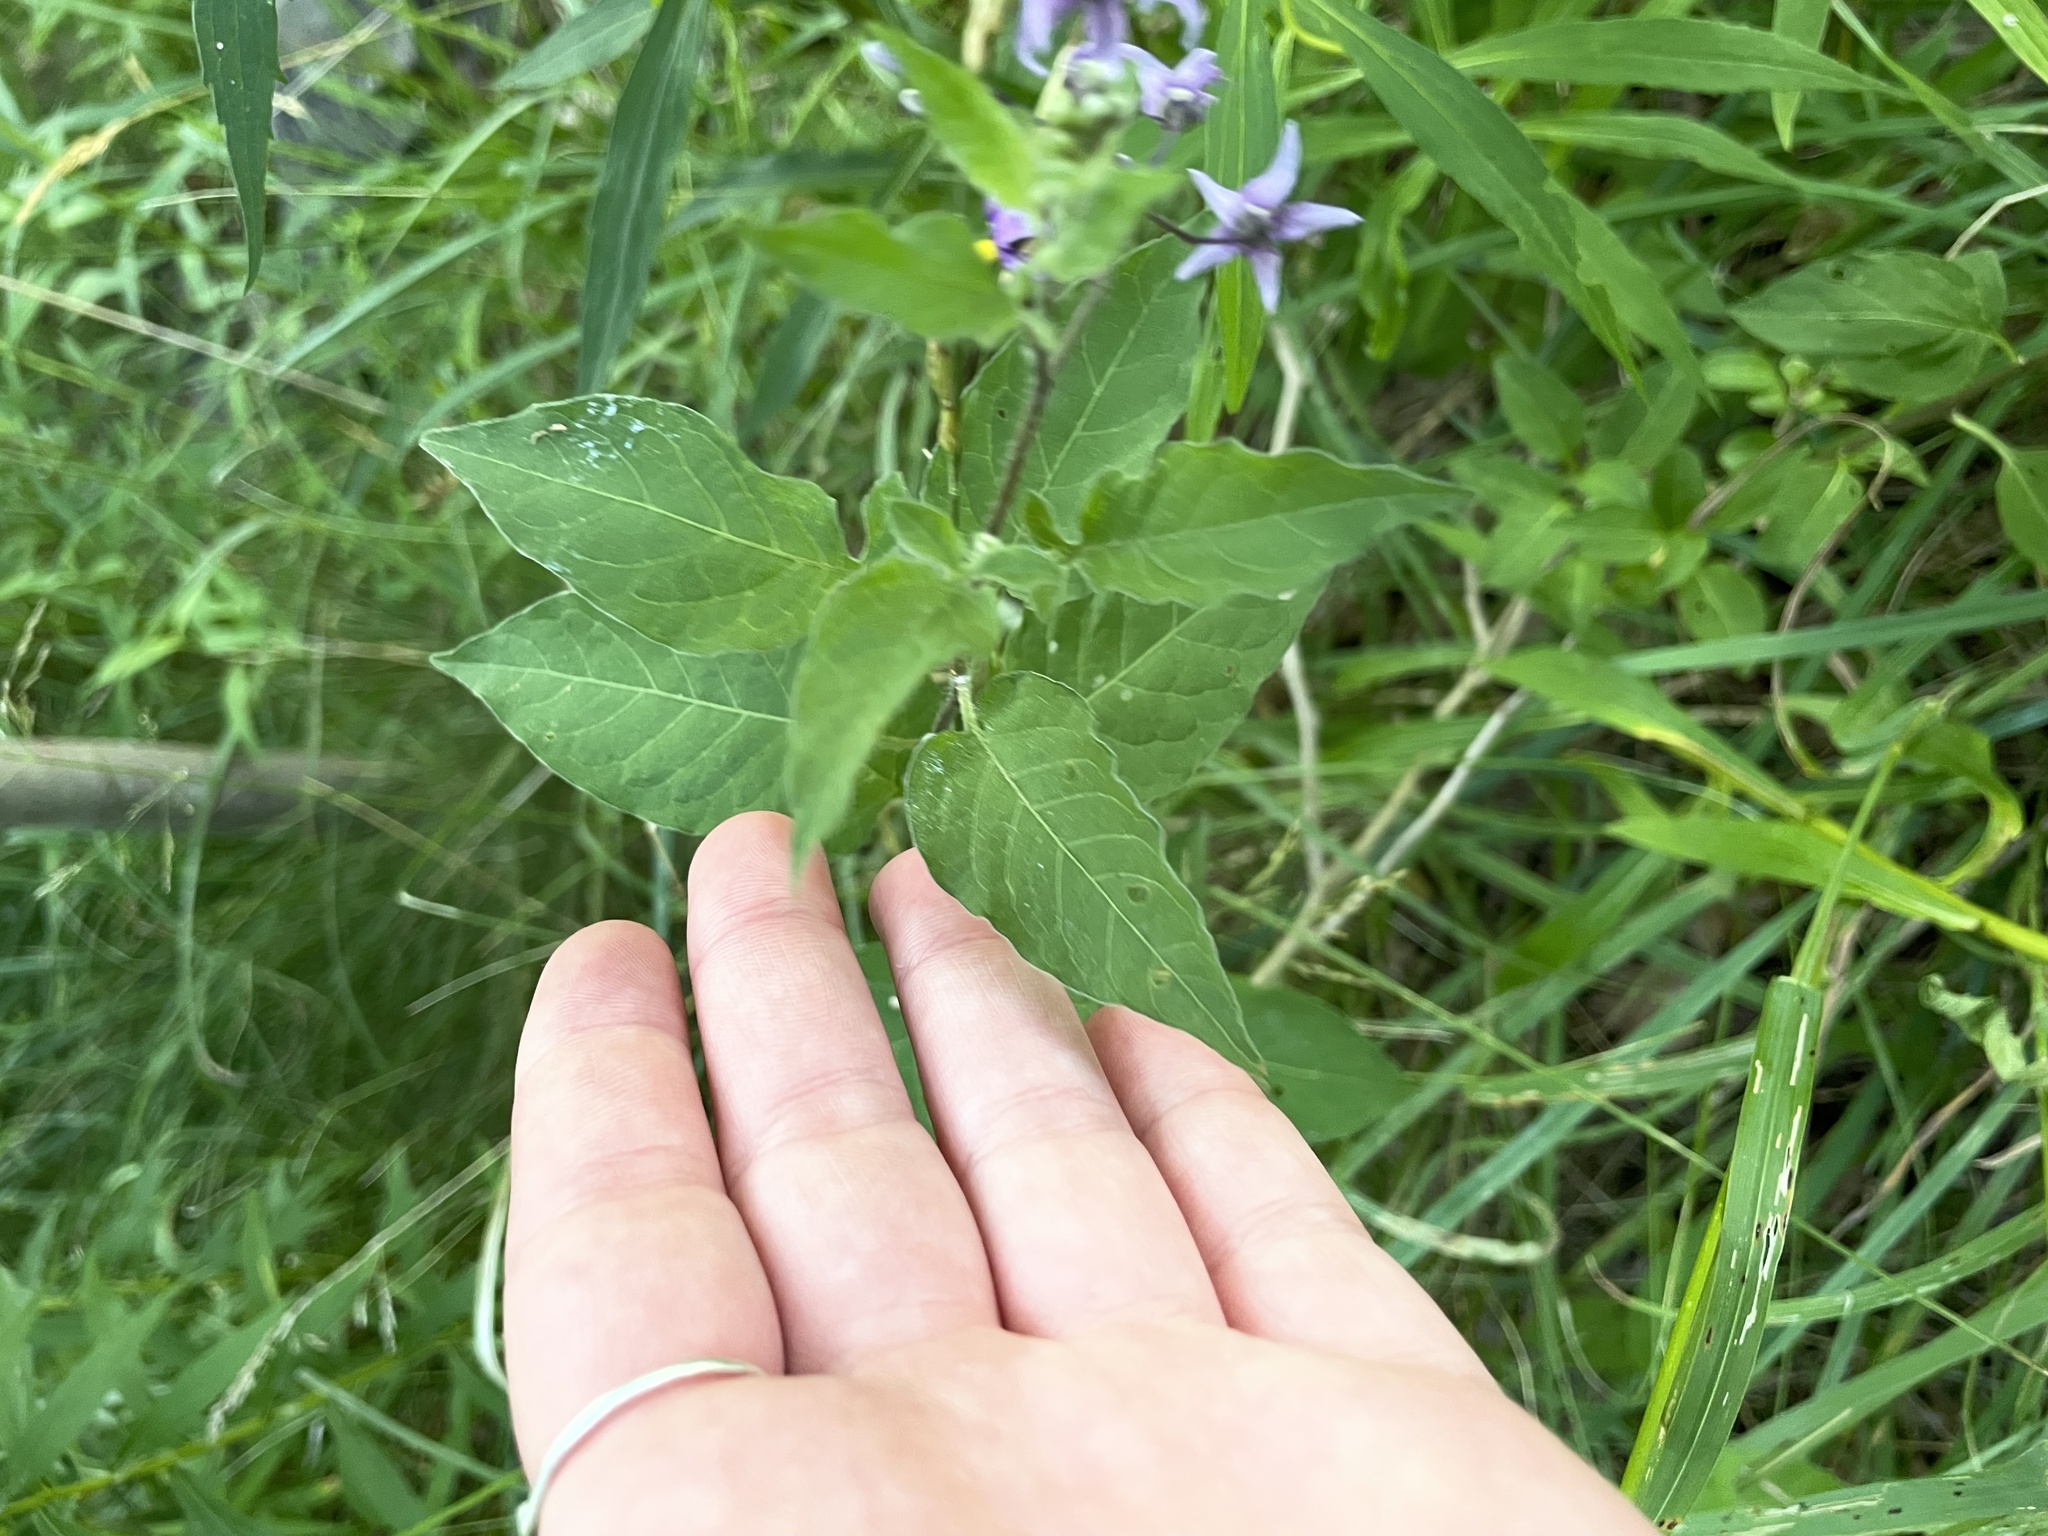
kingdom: Plantae
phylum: Tracheophyta
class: Magnoliopsida
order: Solanales
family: Solanaceae
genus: Solanum
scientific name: Solanum dulcamara
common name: Climbing nightshade
